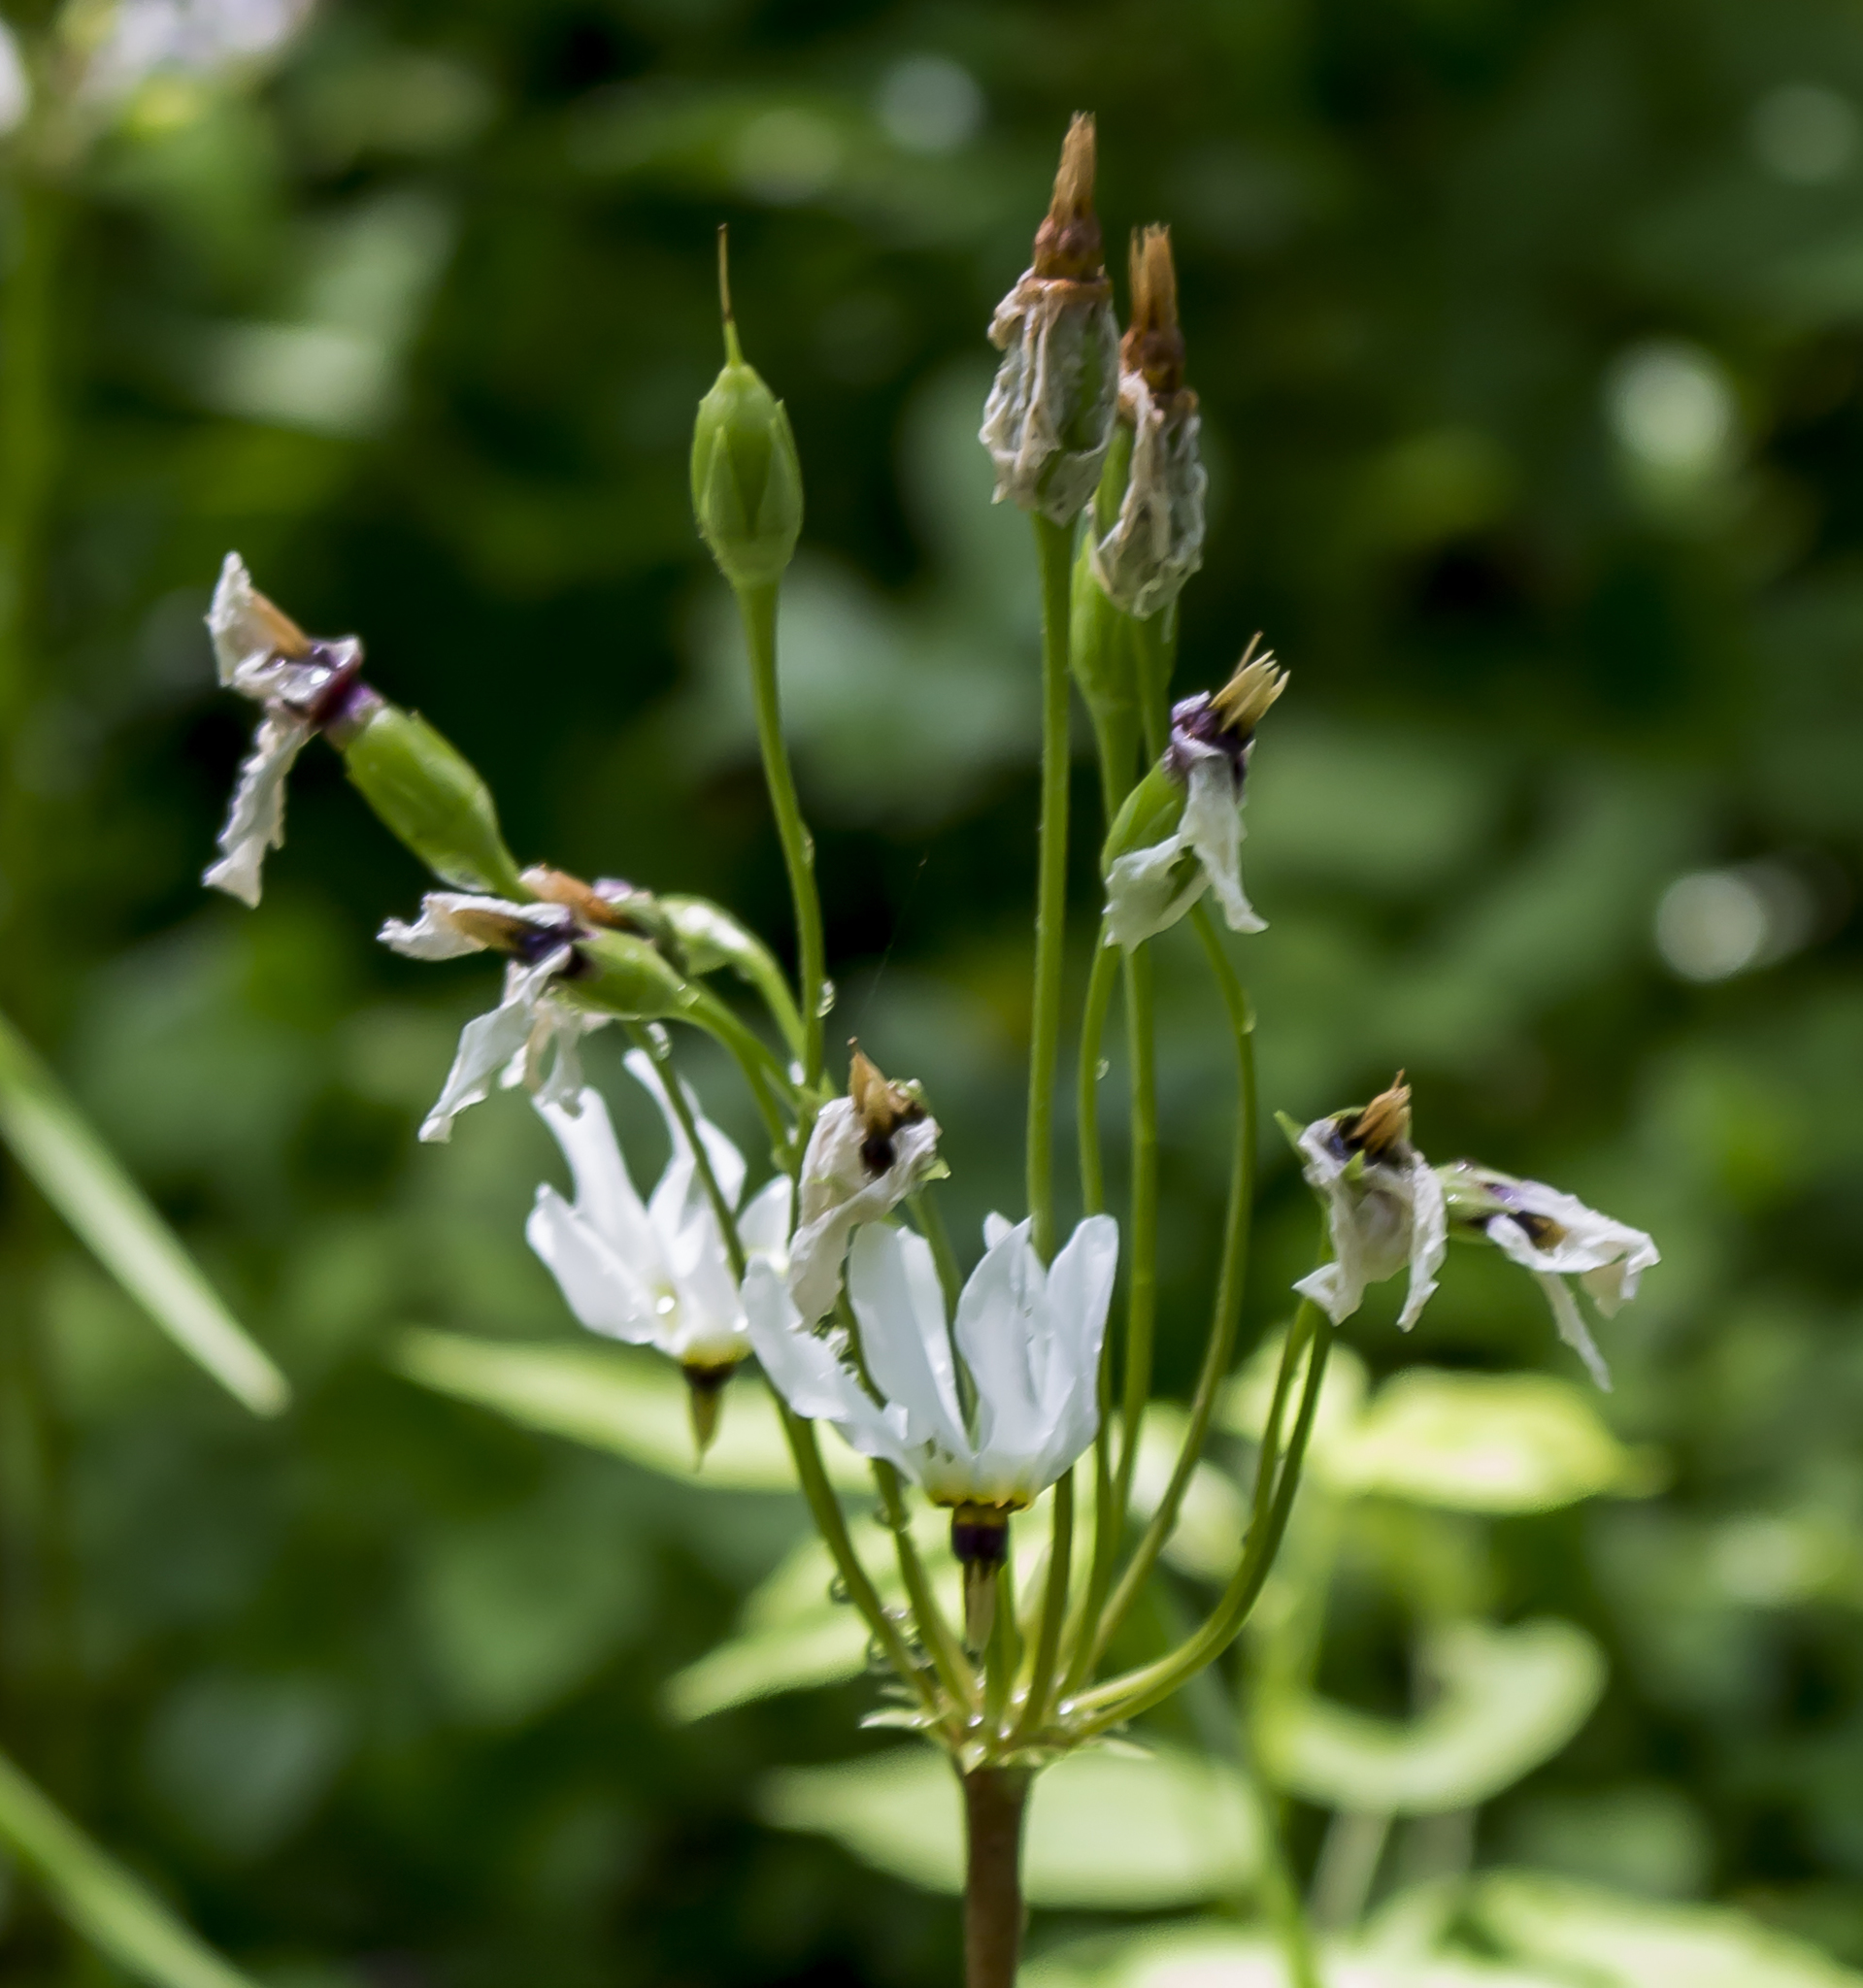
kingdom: Plantae
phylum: Tracheophyta
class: Magnoliopsida
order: Ericales
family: Primulaceae
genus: Dodecatheon
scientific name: Dodecatheon meadia
